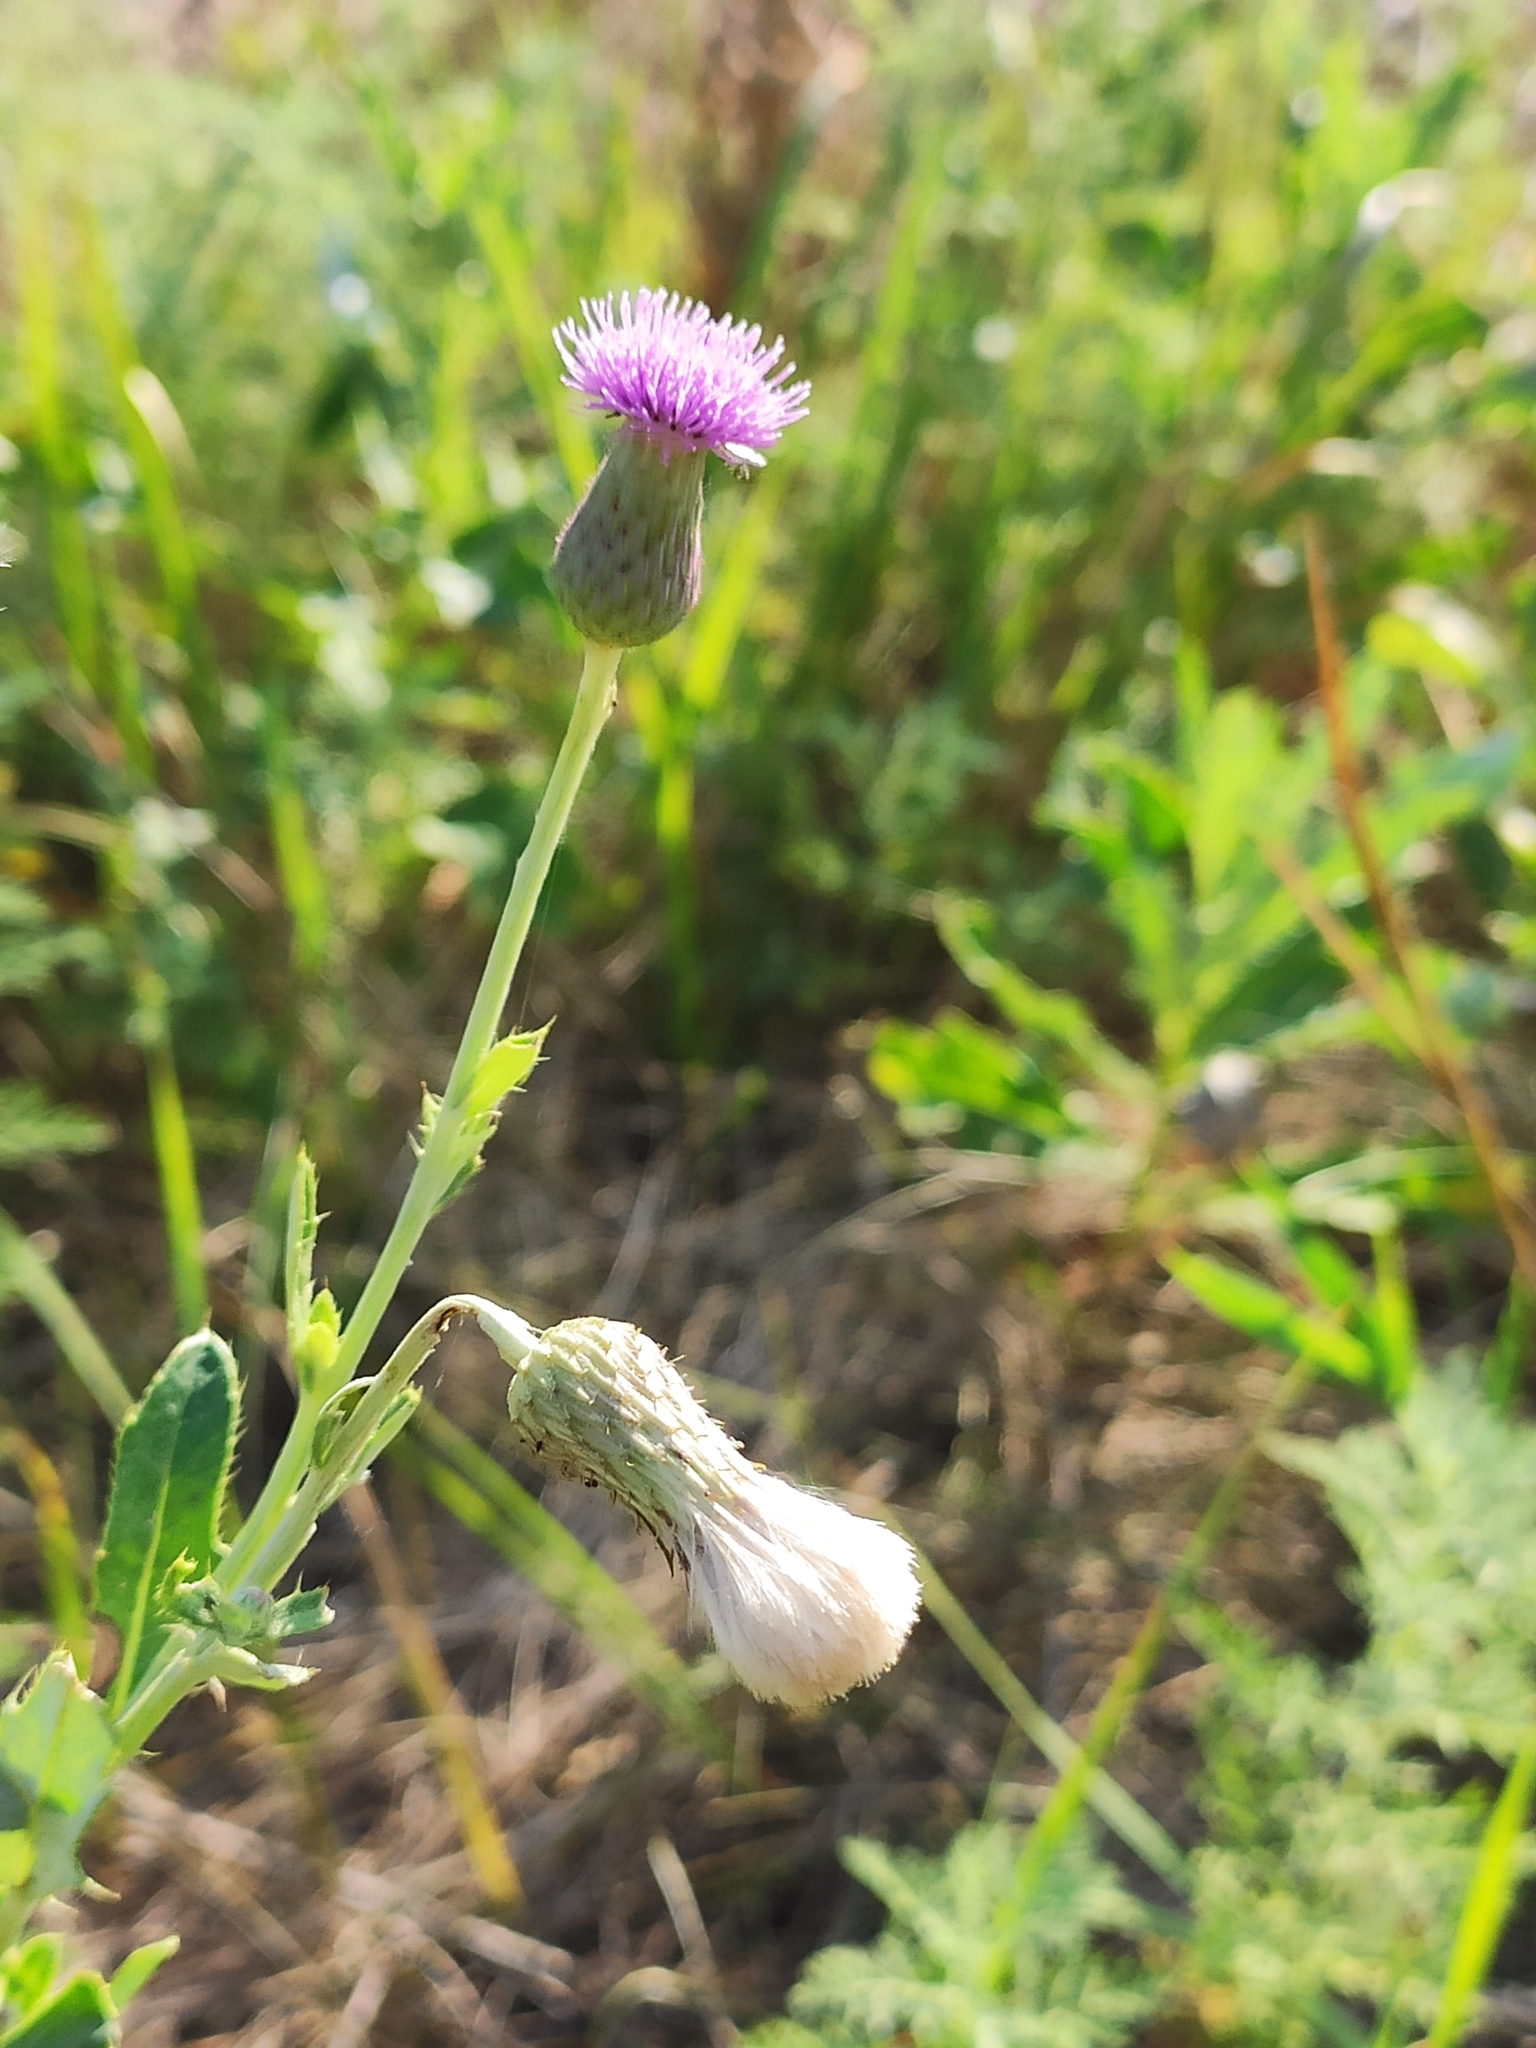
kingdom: Plantae
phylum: Tracheophyta
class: Magnoliopsida
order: Asterales
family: Asteraceae
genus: Cirsium
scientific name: Cirsium arvense
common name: Creeping thistle
